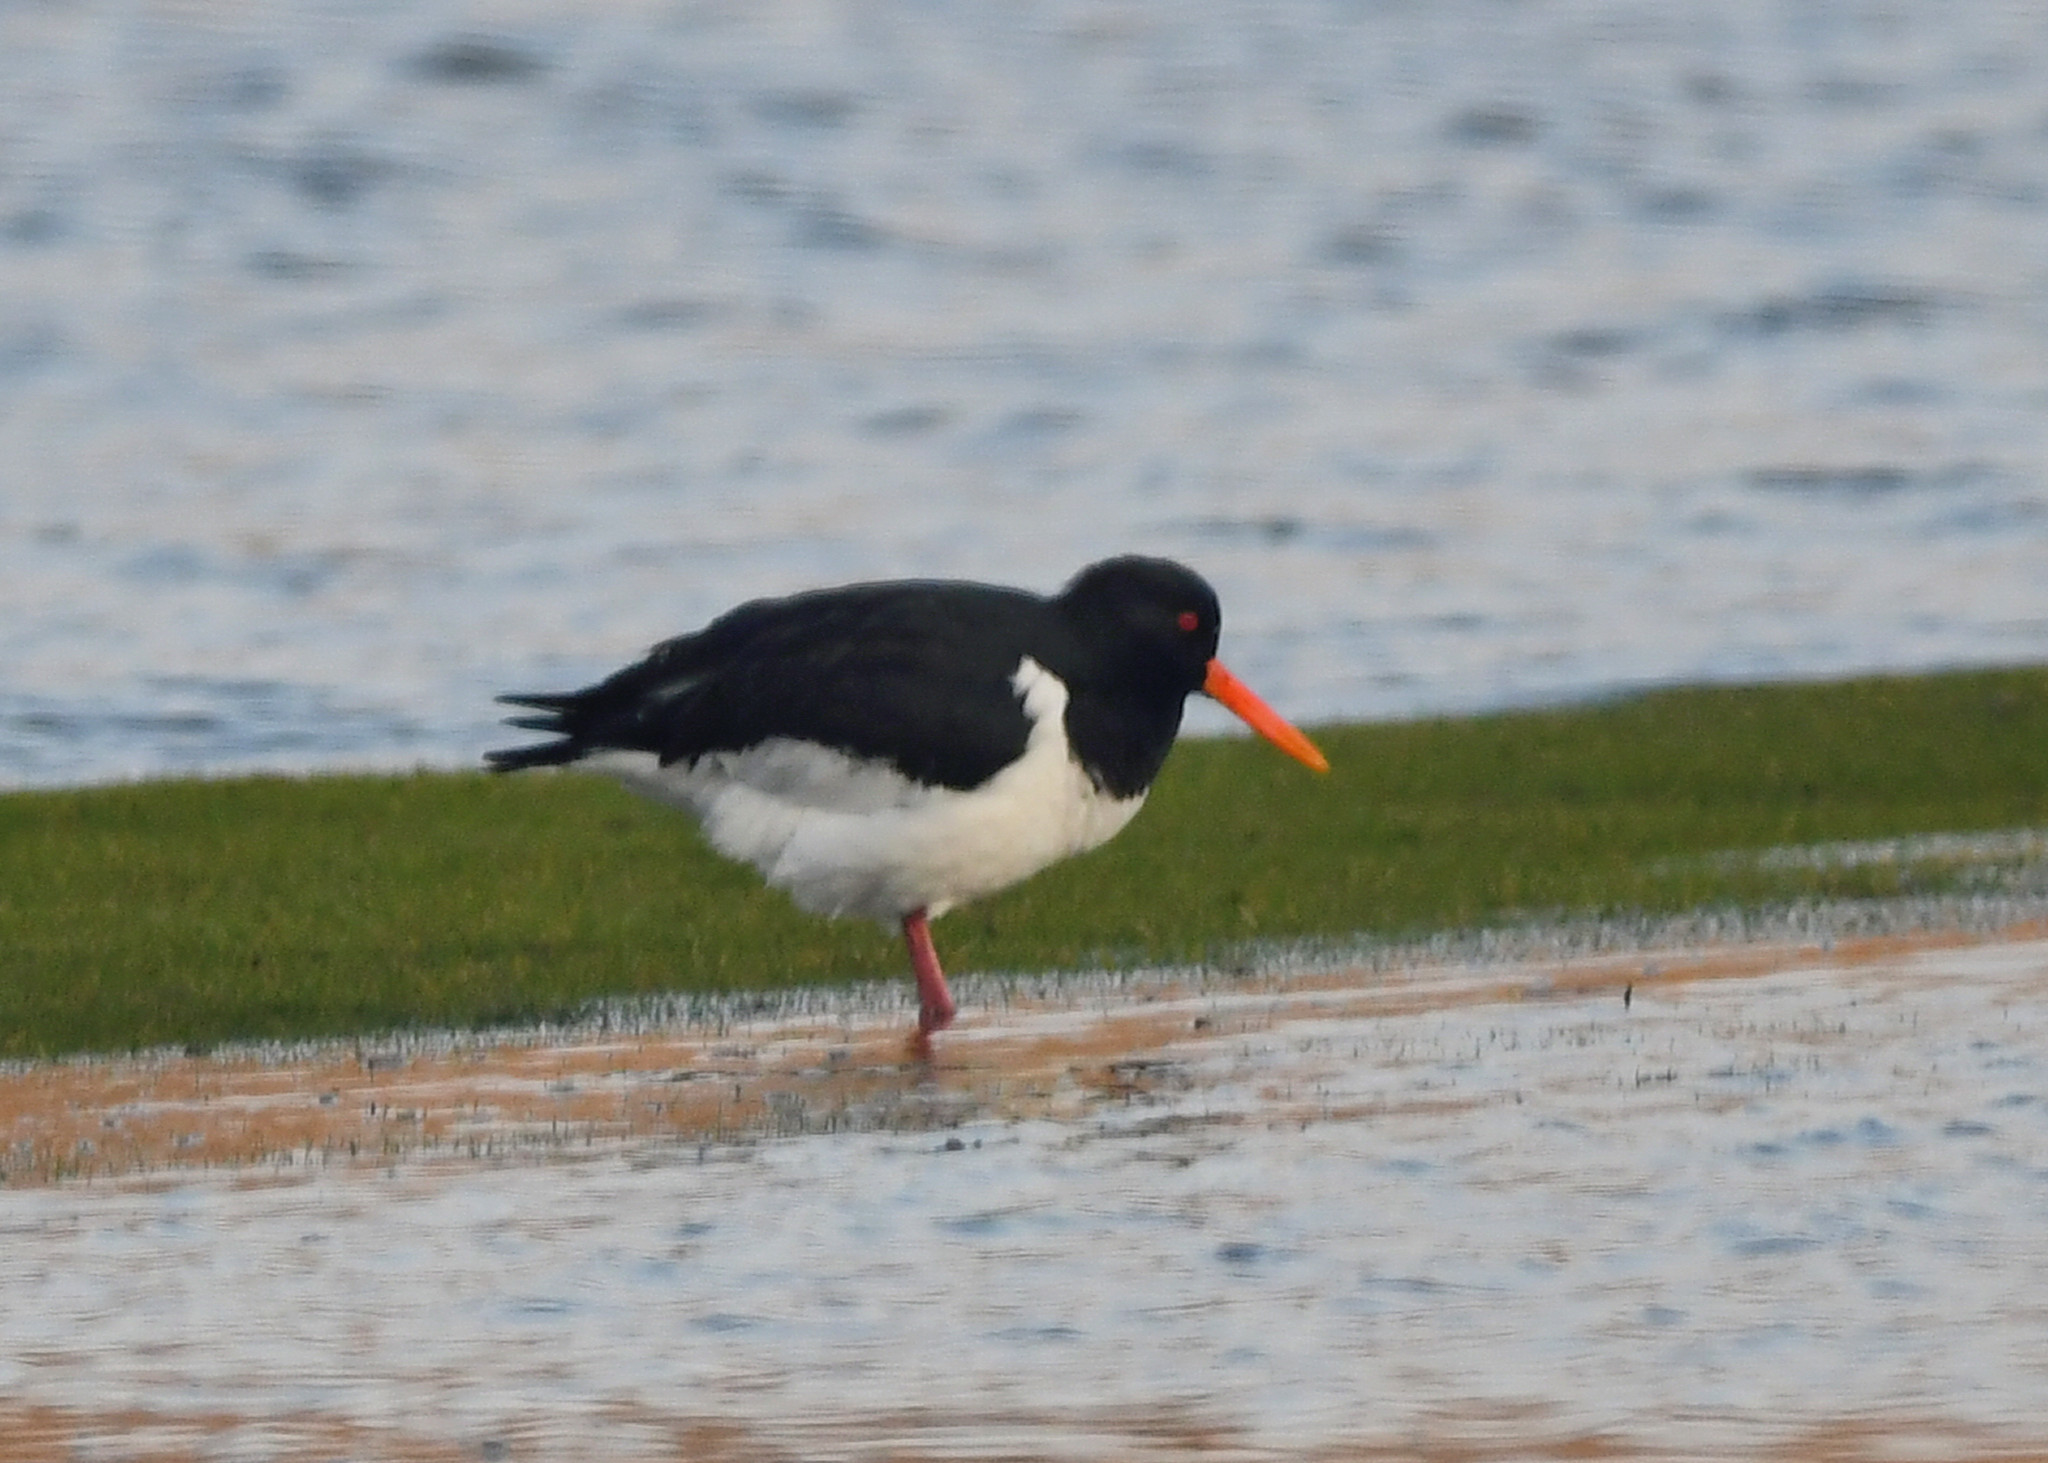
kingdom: Animalia
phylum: Chordata
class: Aves
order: Charadriiformes
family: Haematopodidae
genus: Haematopus
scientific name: Haematopus ostralegus
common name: Eurasian oystercatcher
